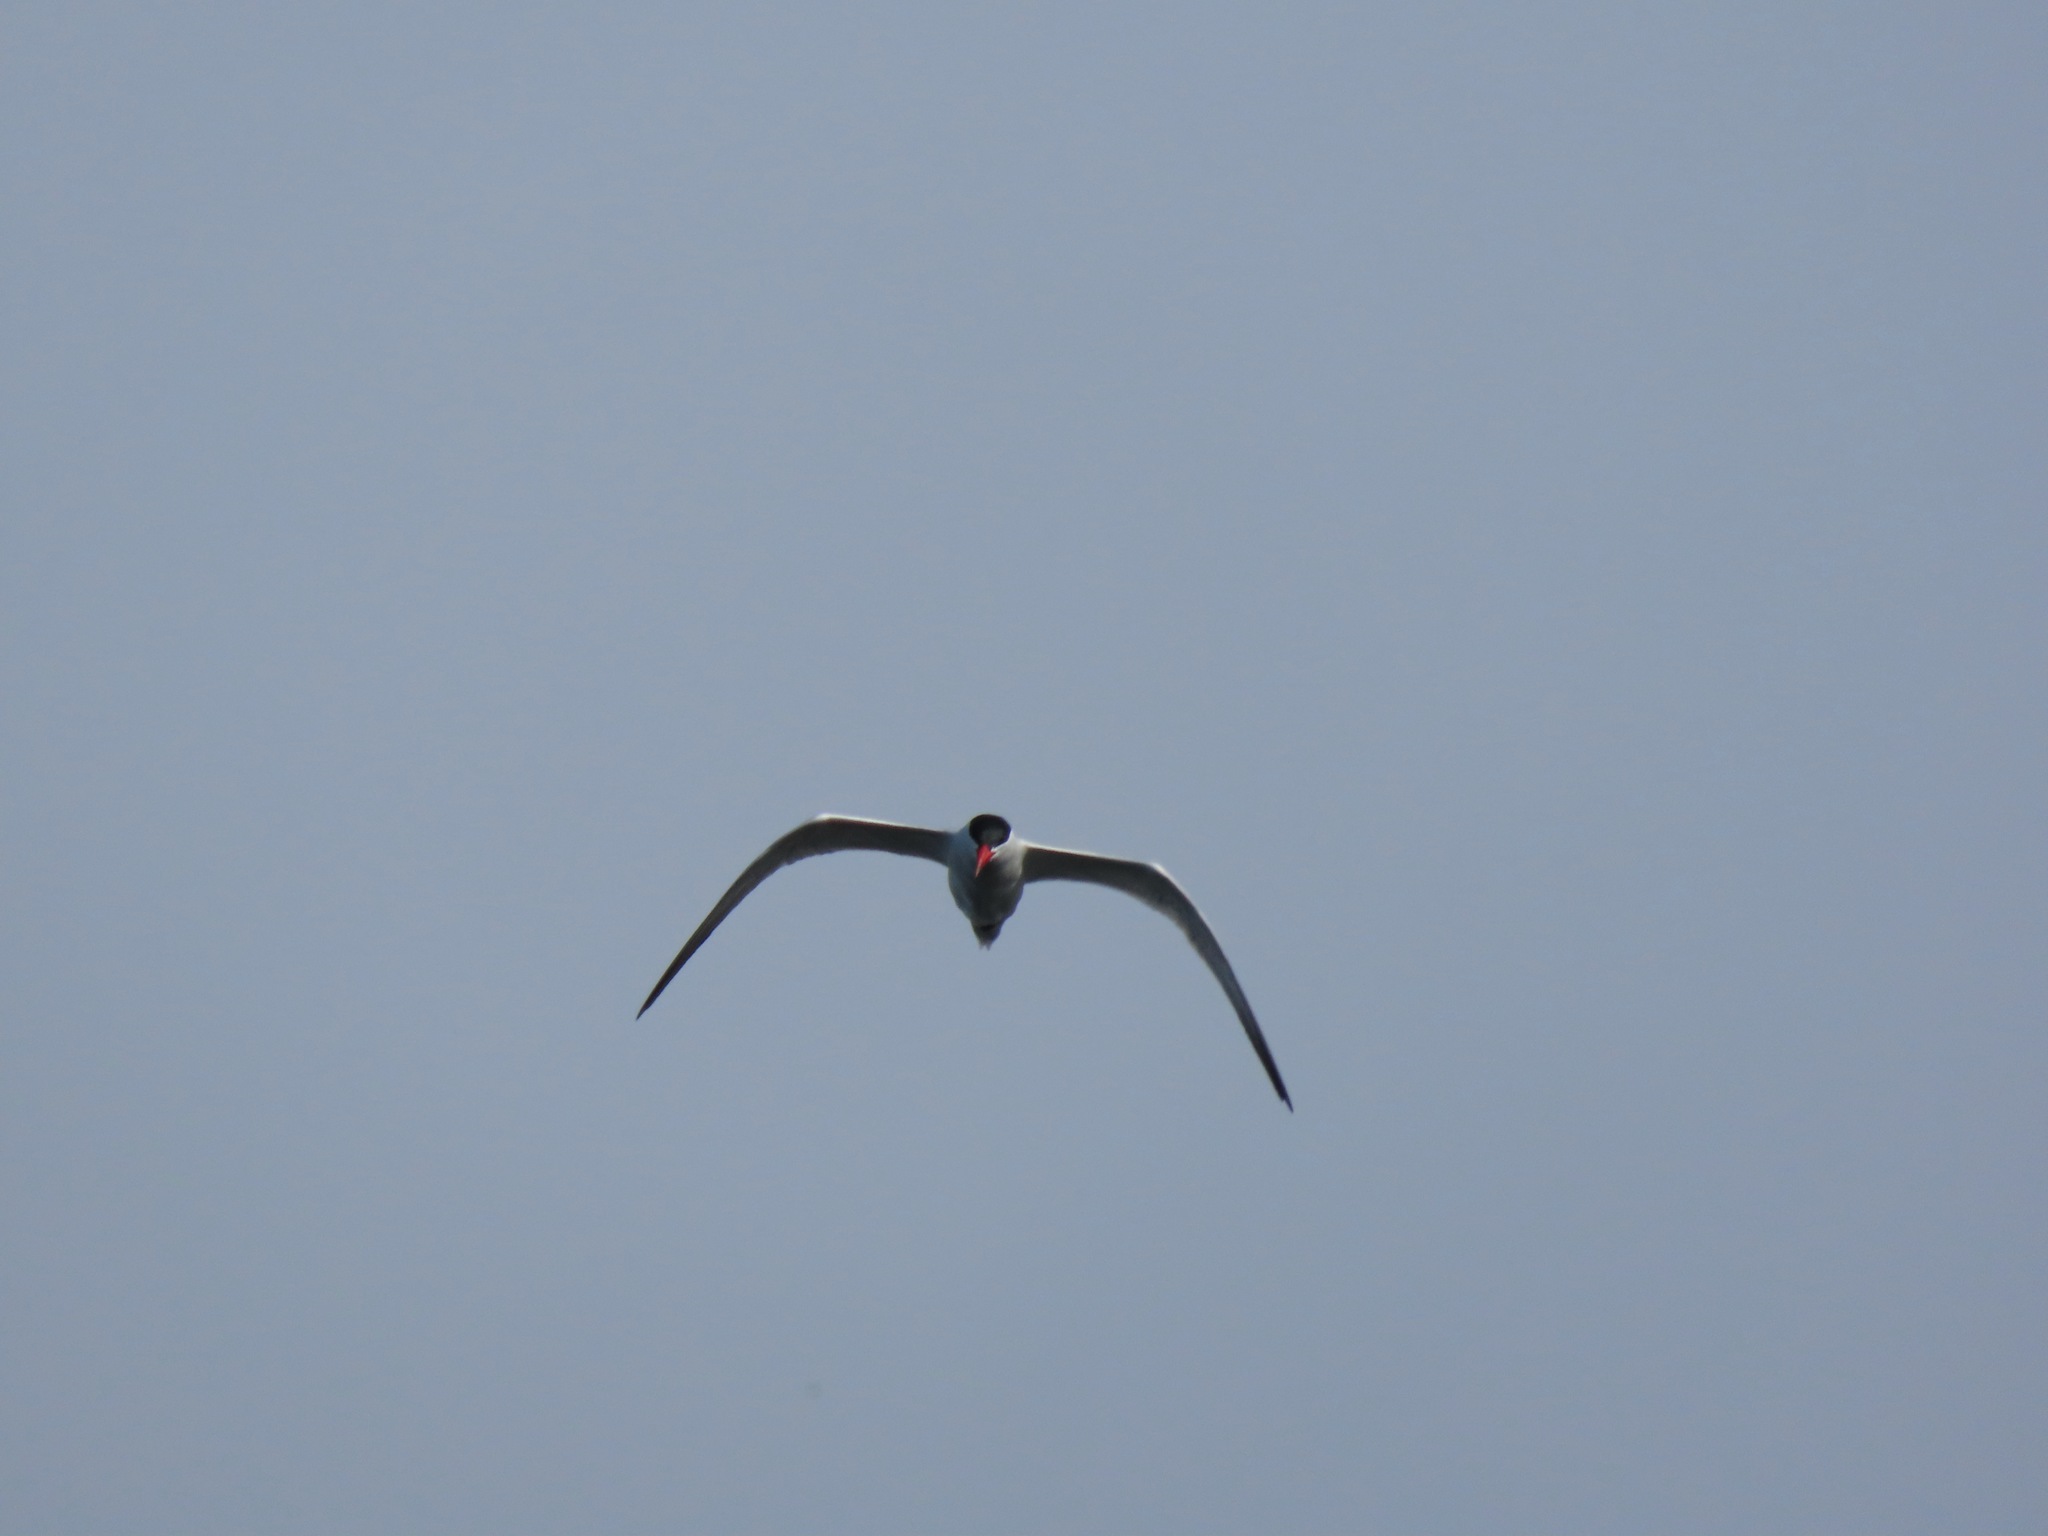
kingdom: Animalia
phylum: Chordata
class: Aves
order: Charadriiformes
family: Laridae
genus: Hydroprogne
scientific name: Hydroprogne caspia
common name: Caspian tern
